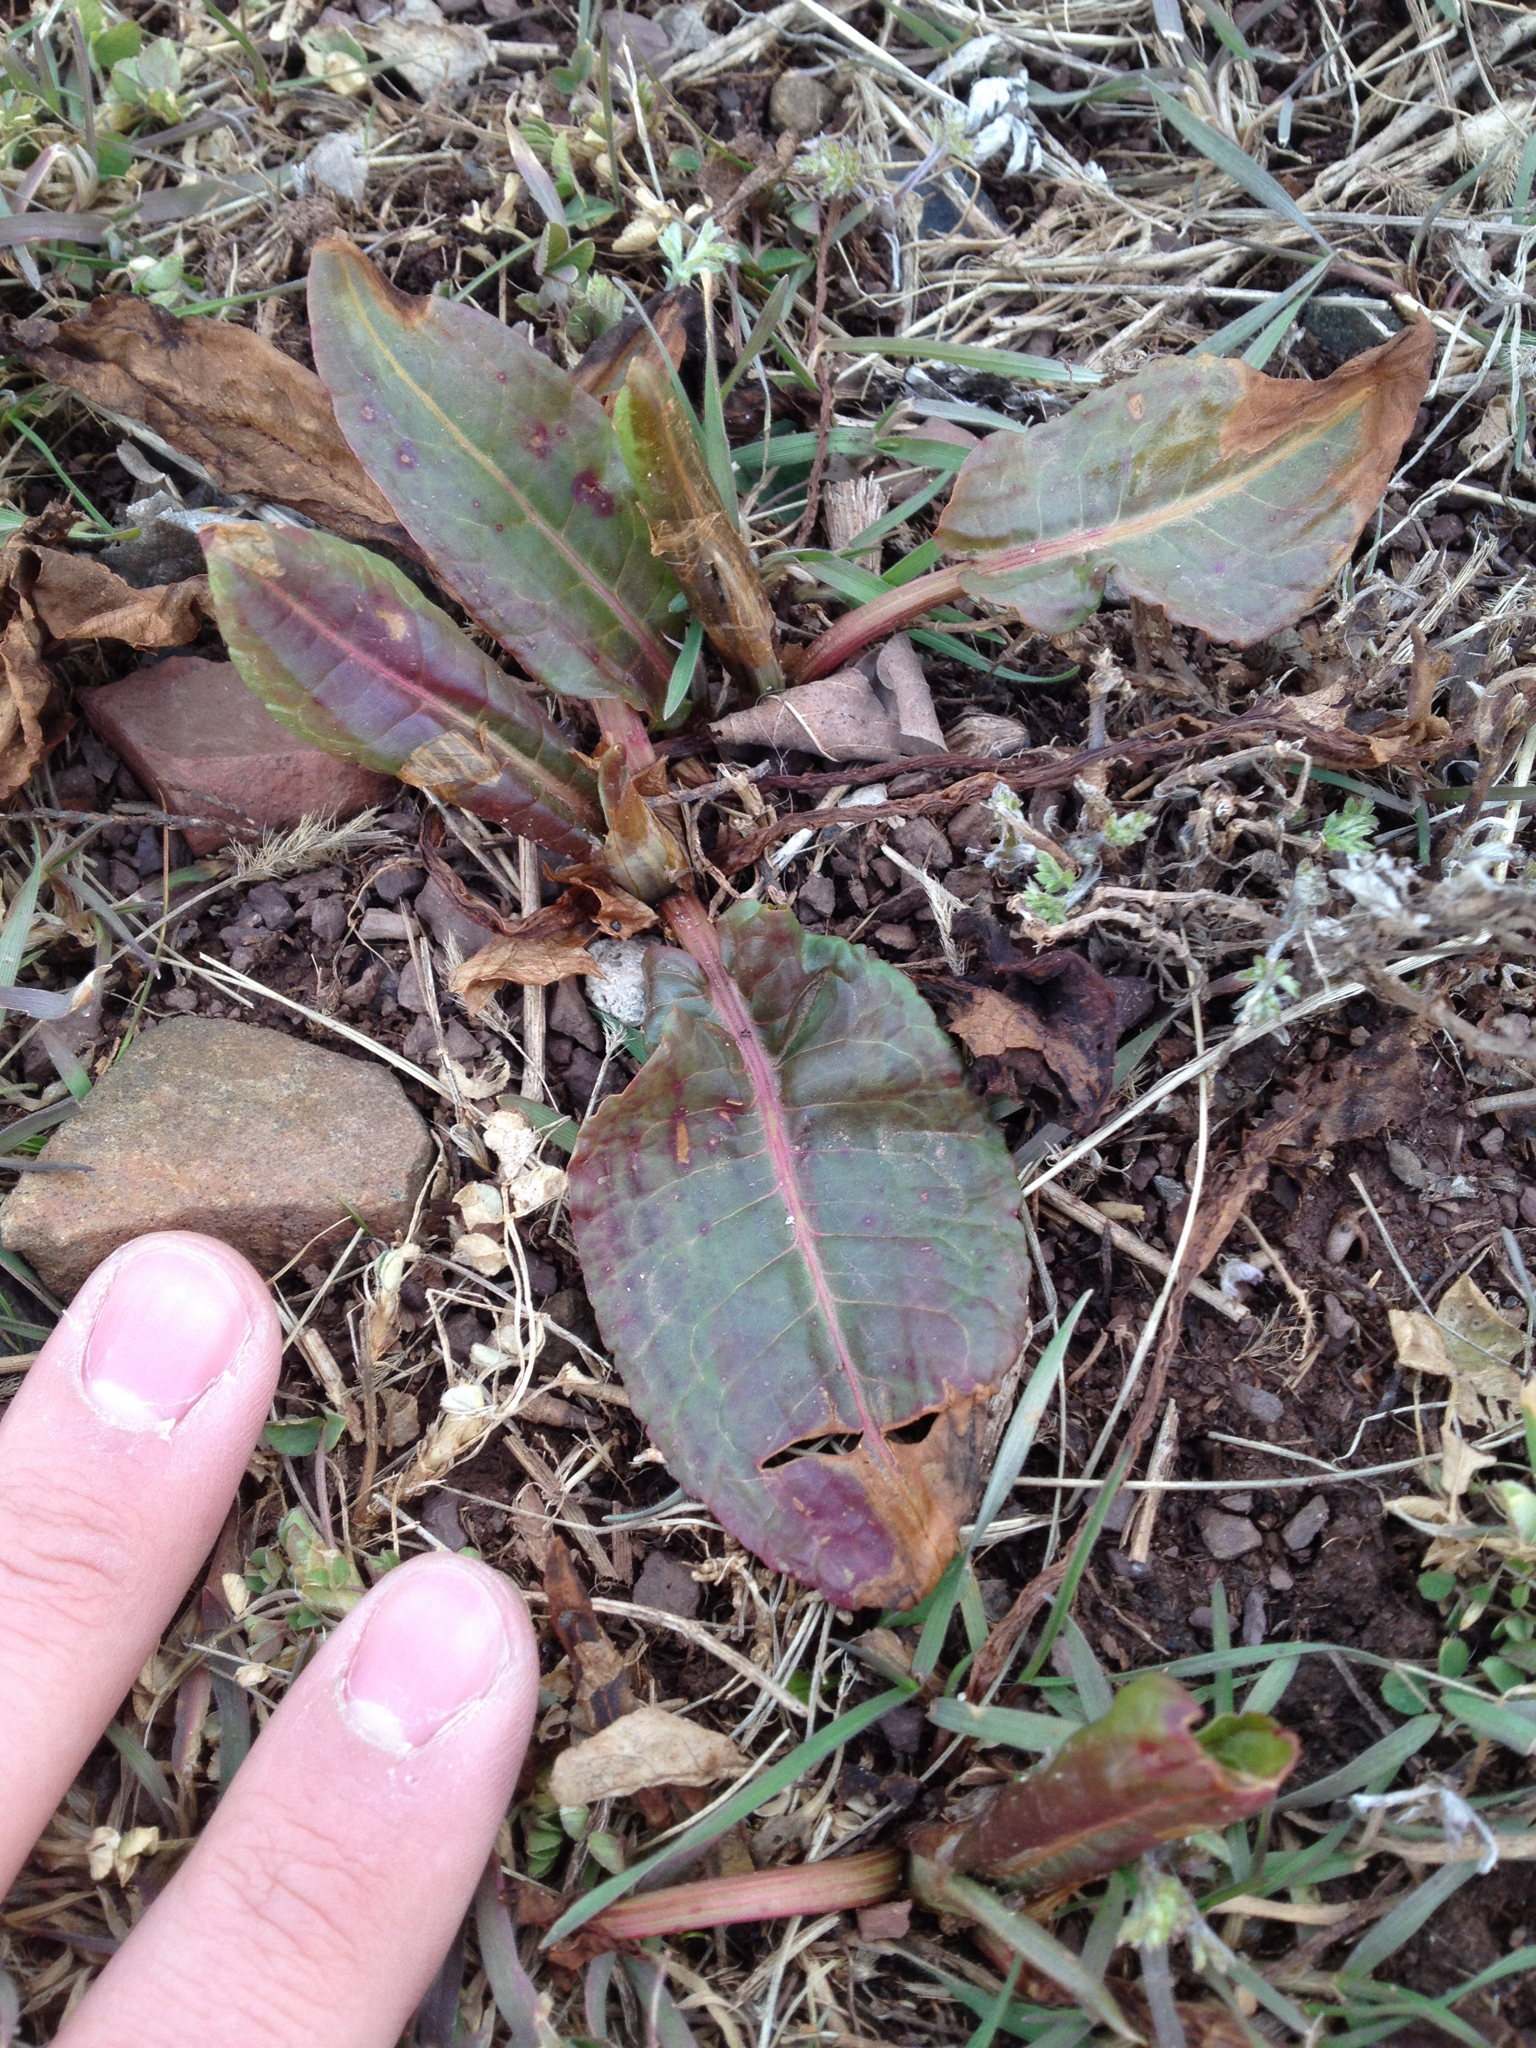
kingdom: Plantae
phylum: Tracheophyta
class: Magnoliopsida
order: Caryophyllales
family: Polygonaceae
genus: Rumex
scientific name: Rumex obtusifolius
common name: Bitter dock
